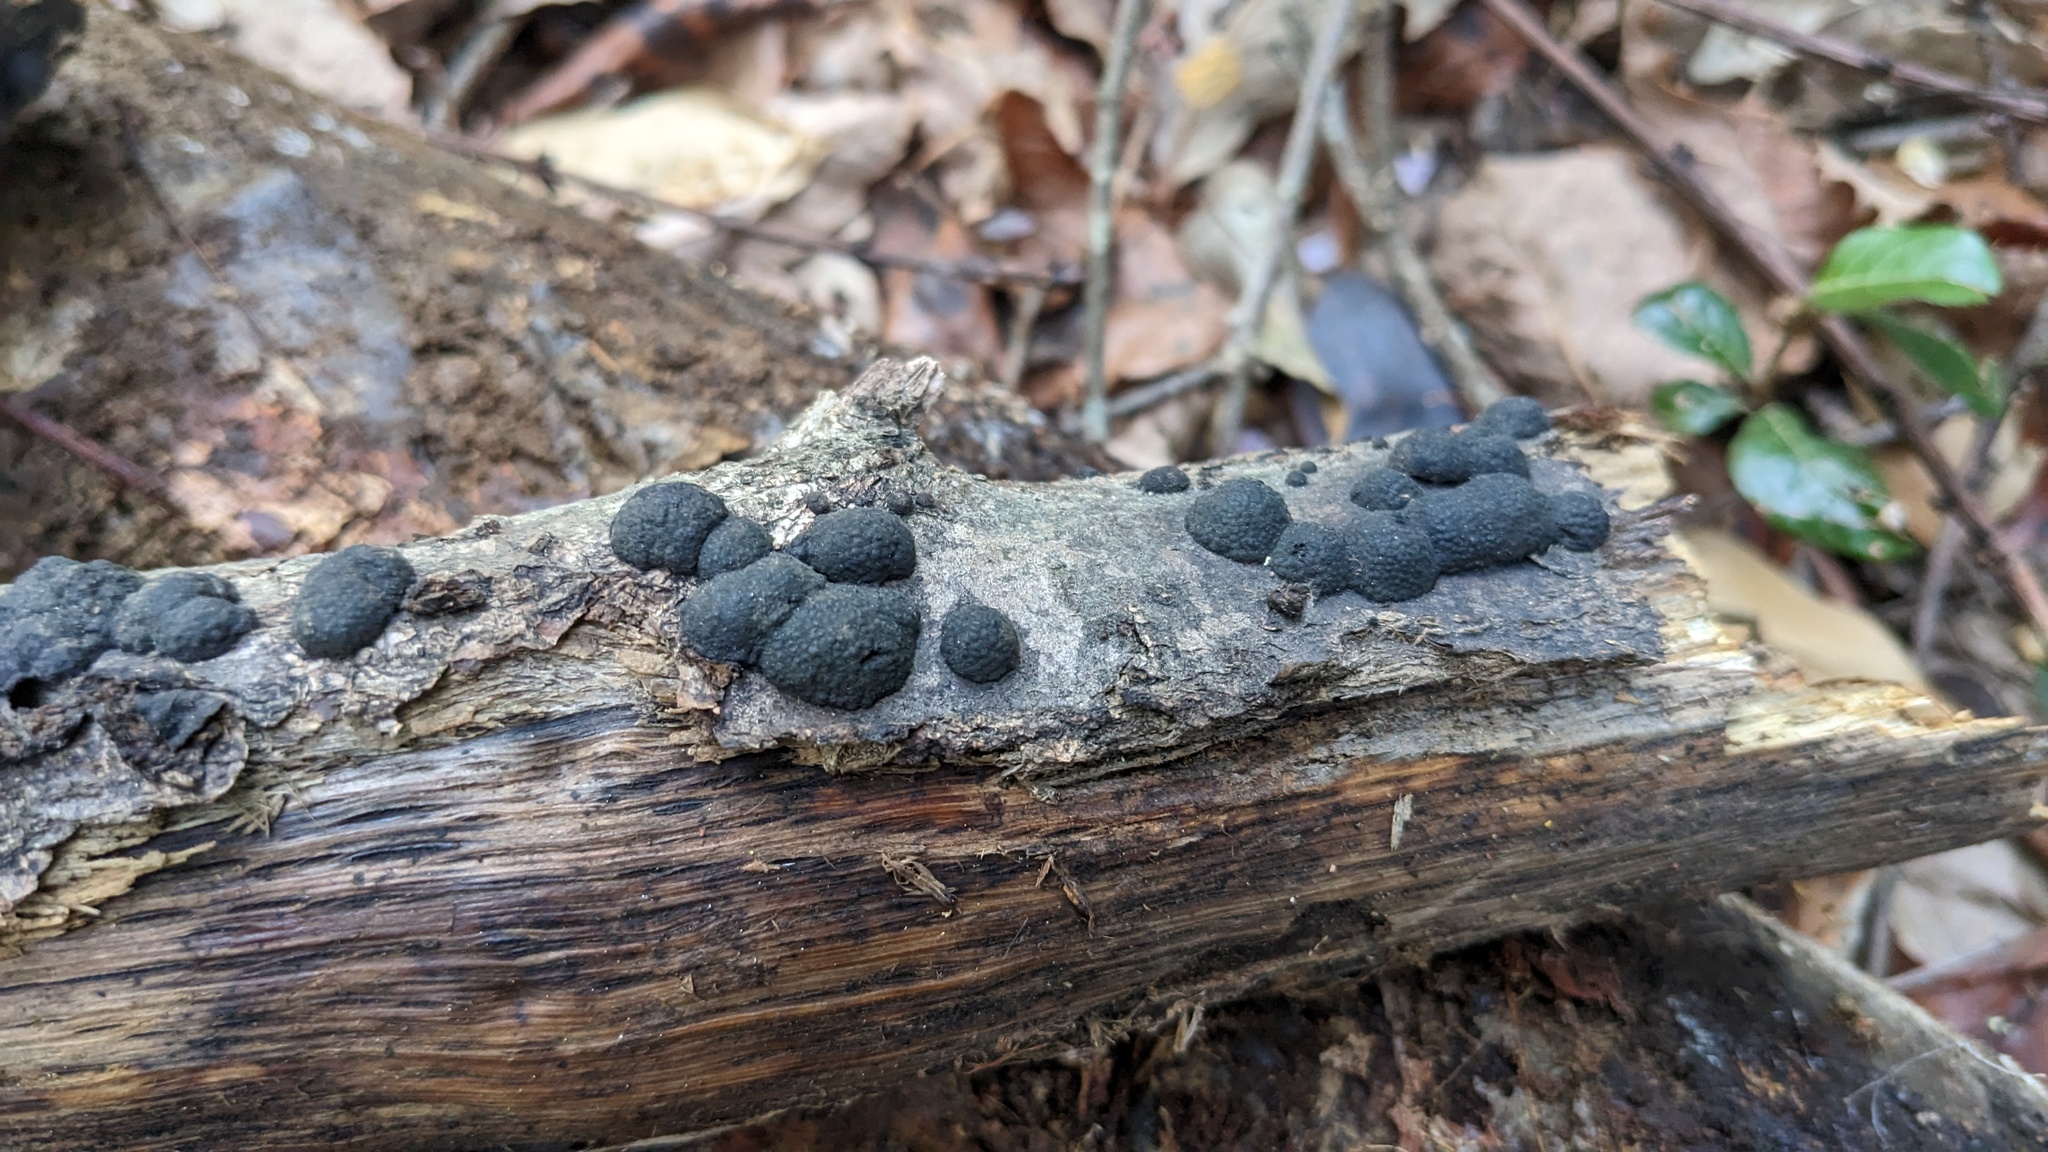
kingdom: Fungi
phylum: Ascomycota
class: Sordariomycetes
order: Xylariales
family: Hypoxylaceae
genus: Annulohypoxylon
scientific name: Annulohypoxylon truncatum
